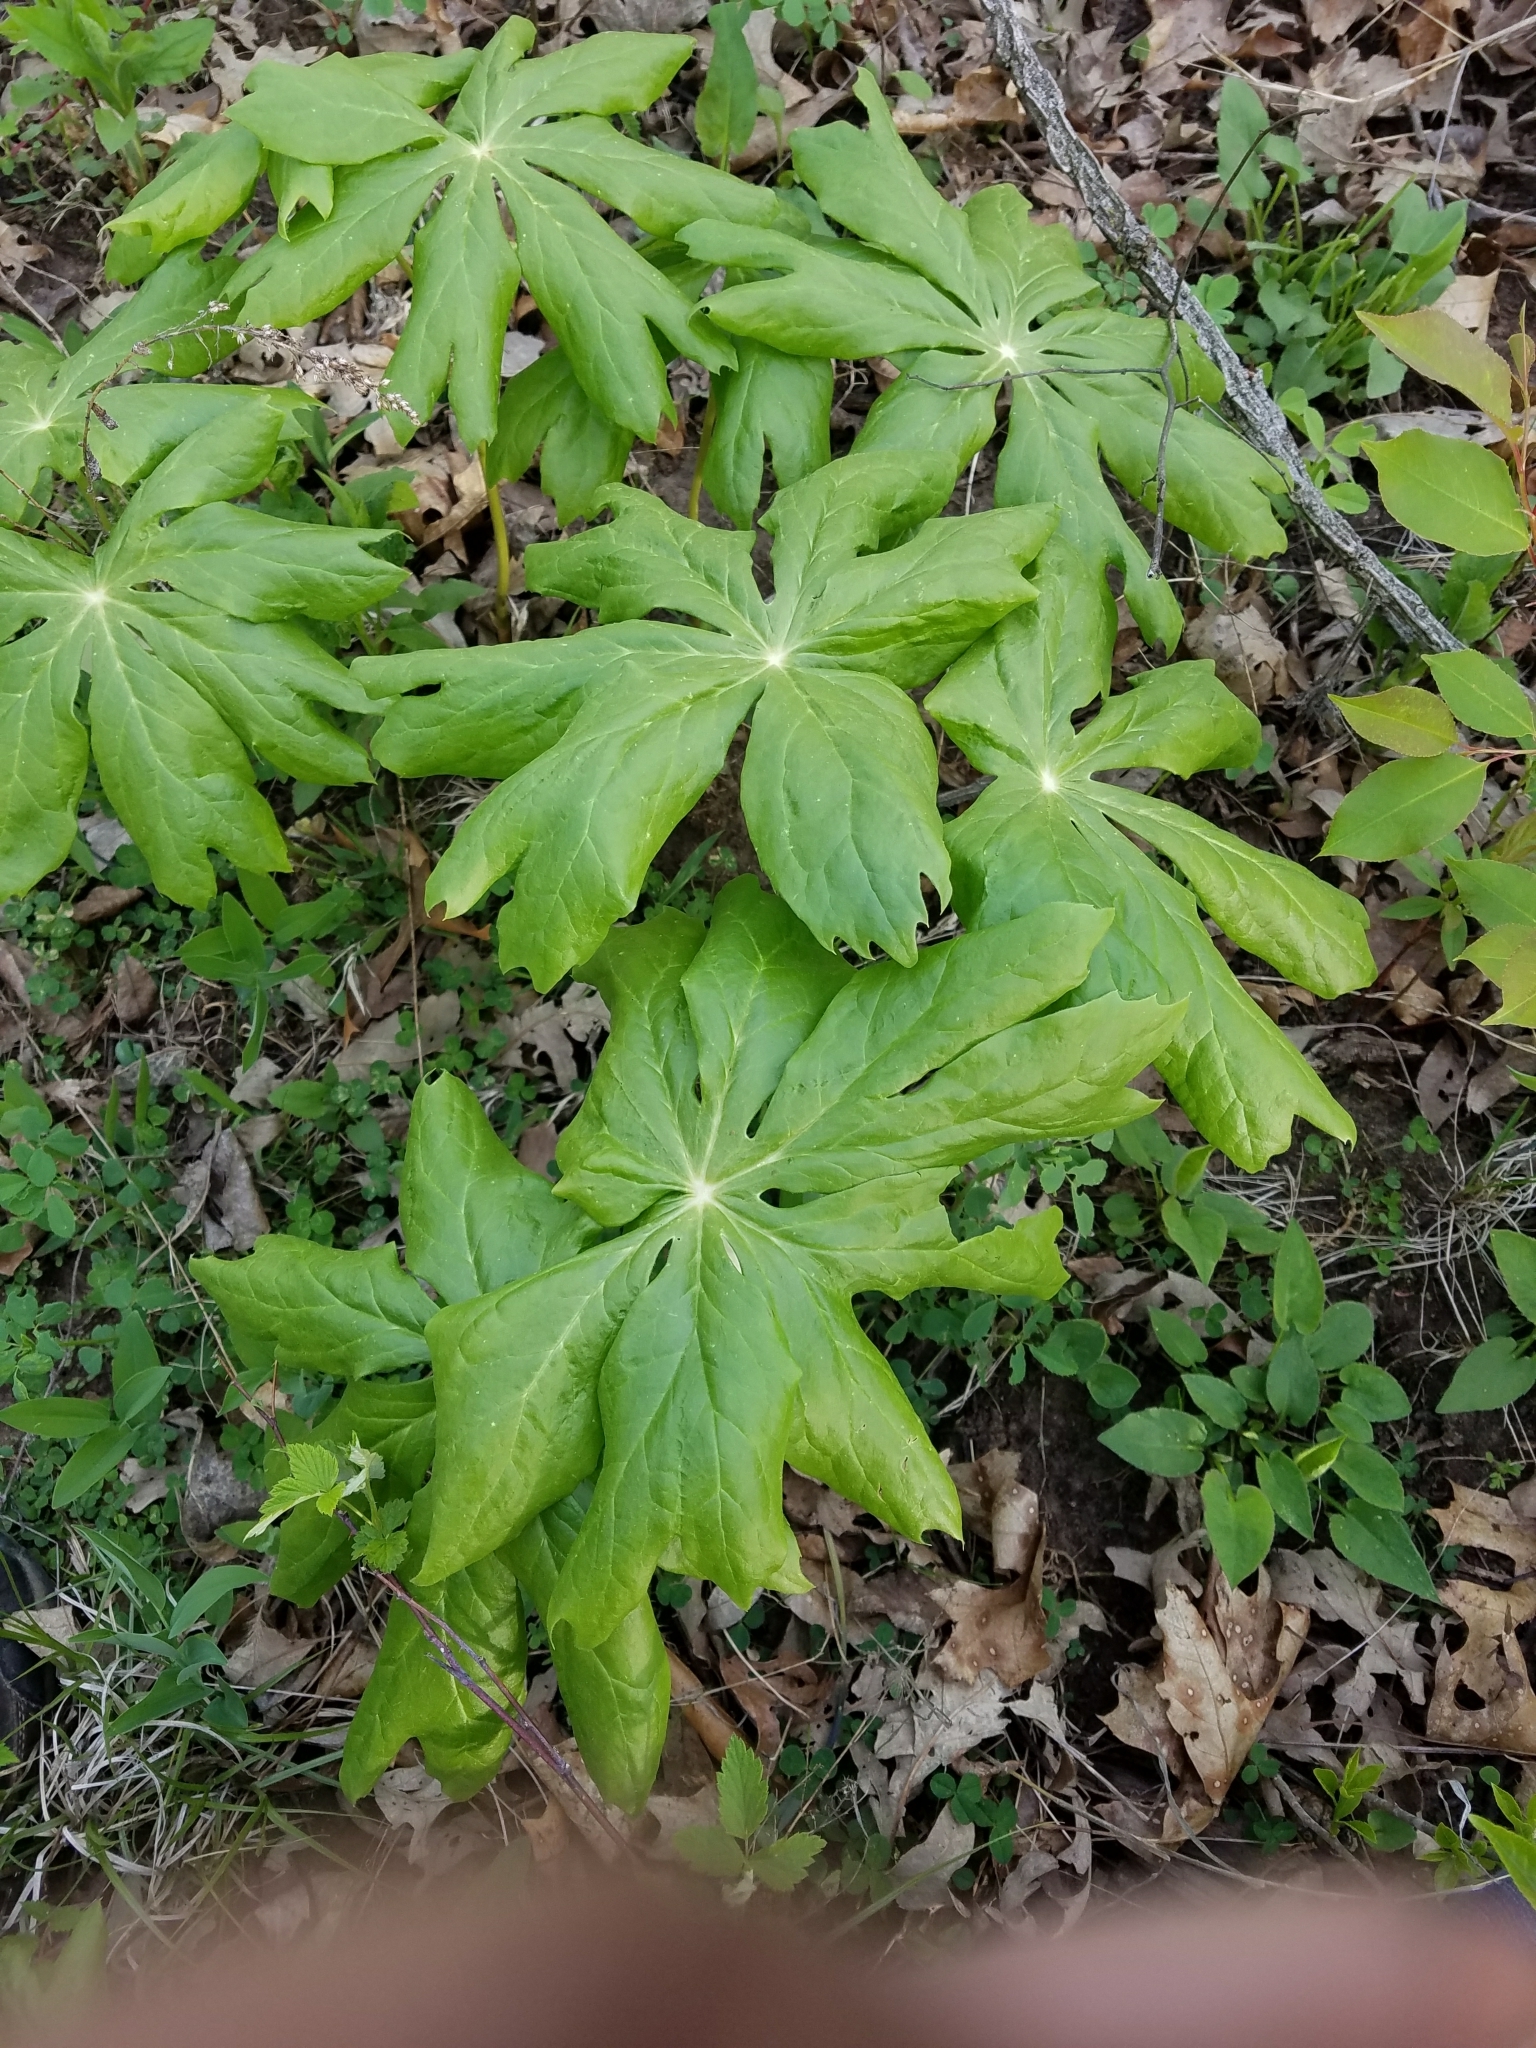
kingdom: Plantae
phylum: Tracheophyta
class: Magnoliopsida
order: Ranunculales
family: Berberidaceae
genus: Podophyllum
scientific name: Podophyllum peltatum
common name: Wild mandrake
